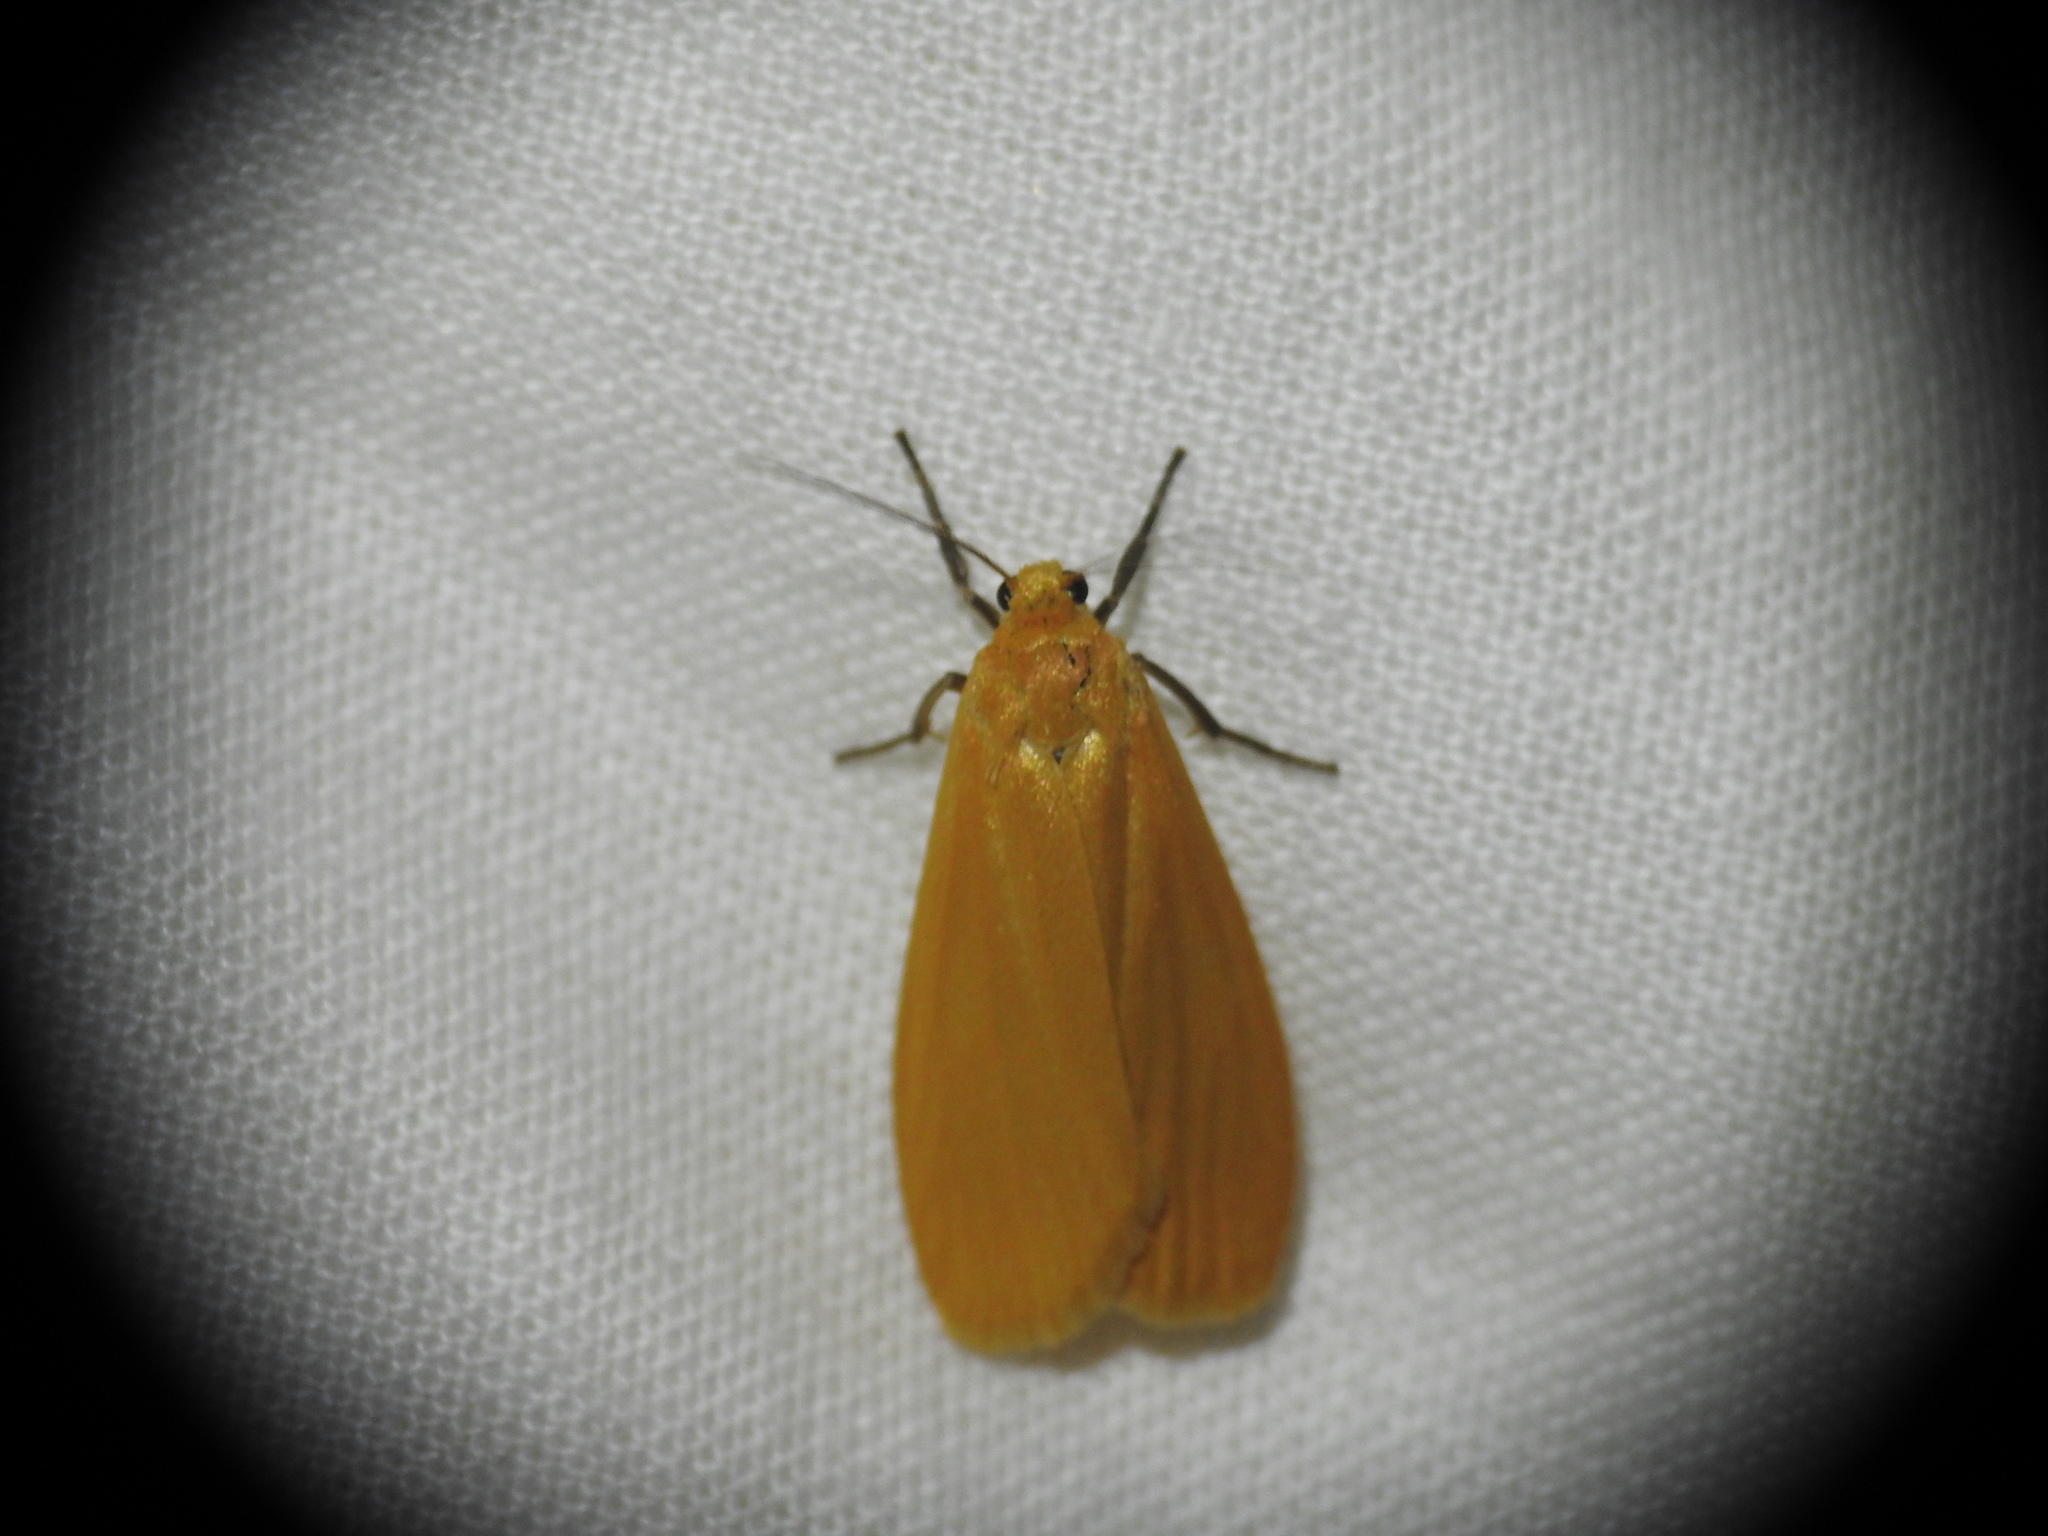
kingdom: Animalia
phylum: Arthropoda
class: Insecta
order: Lepidoptera
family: Erebidae
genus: Wittia
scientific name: Wittia sororcula
